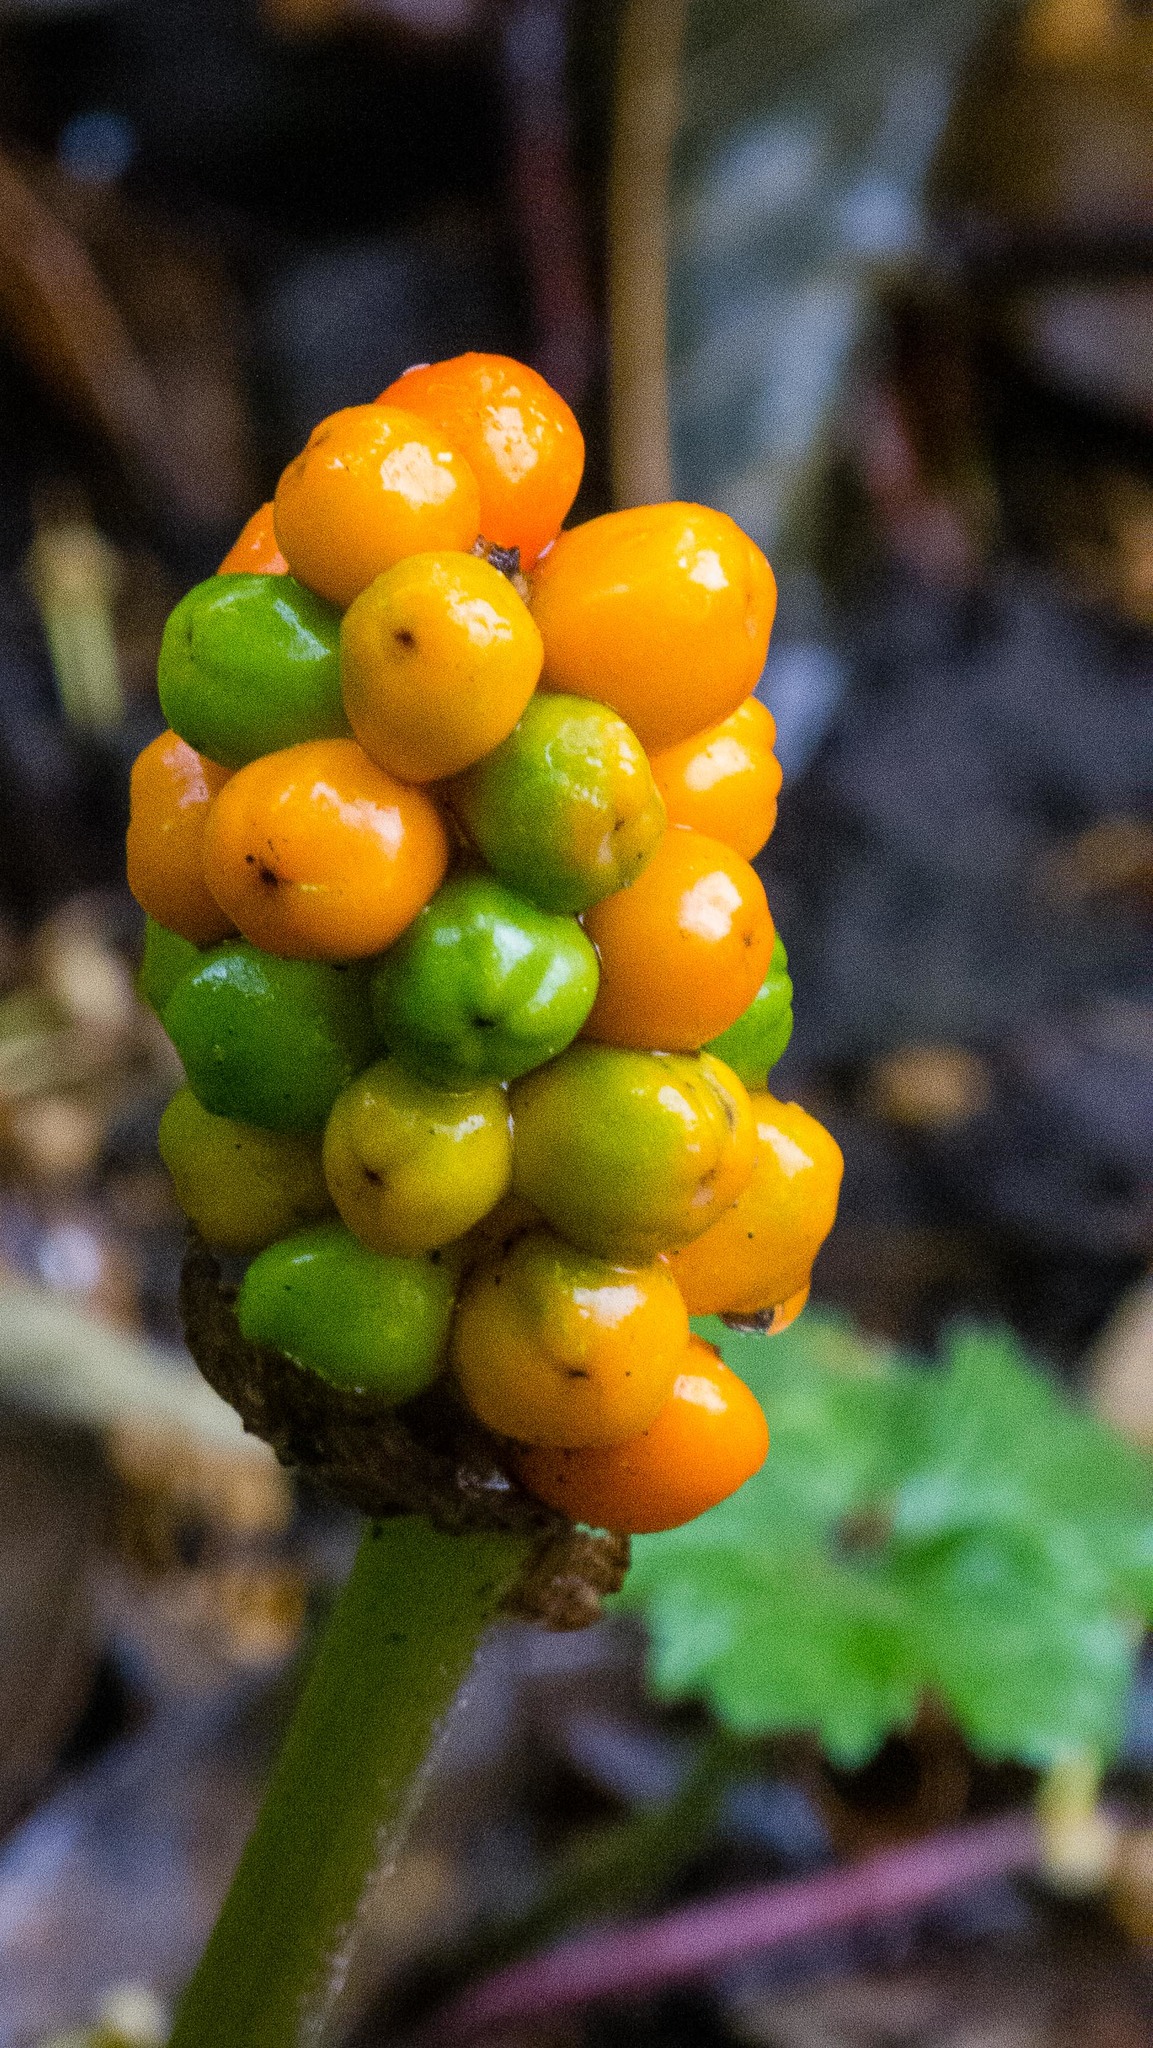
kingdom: Plantae
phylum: Tracheophyta
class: Liliopsida
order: Alismatales
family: Araceae
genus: Arum
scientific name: Arum maculatum
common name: Lords-and-ladies
